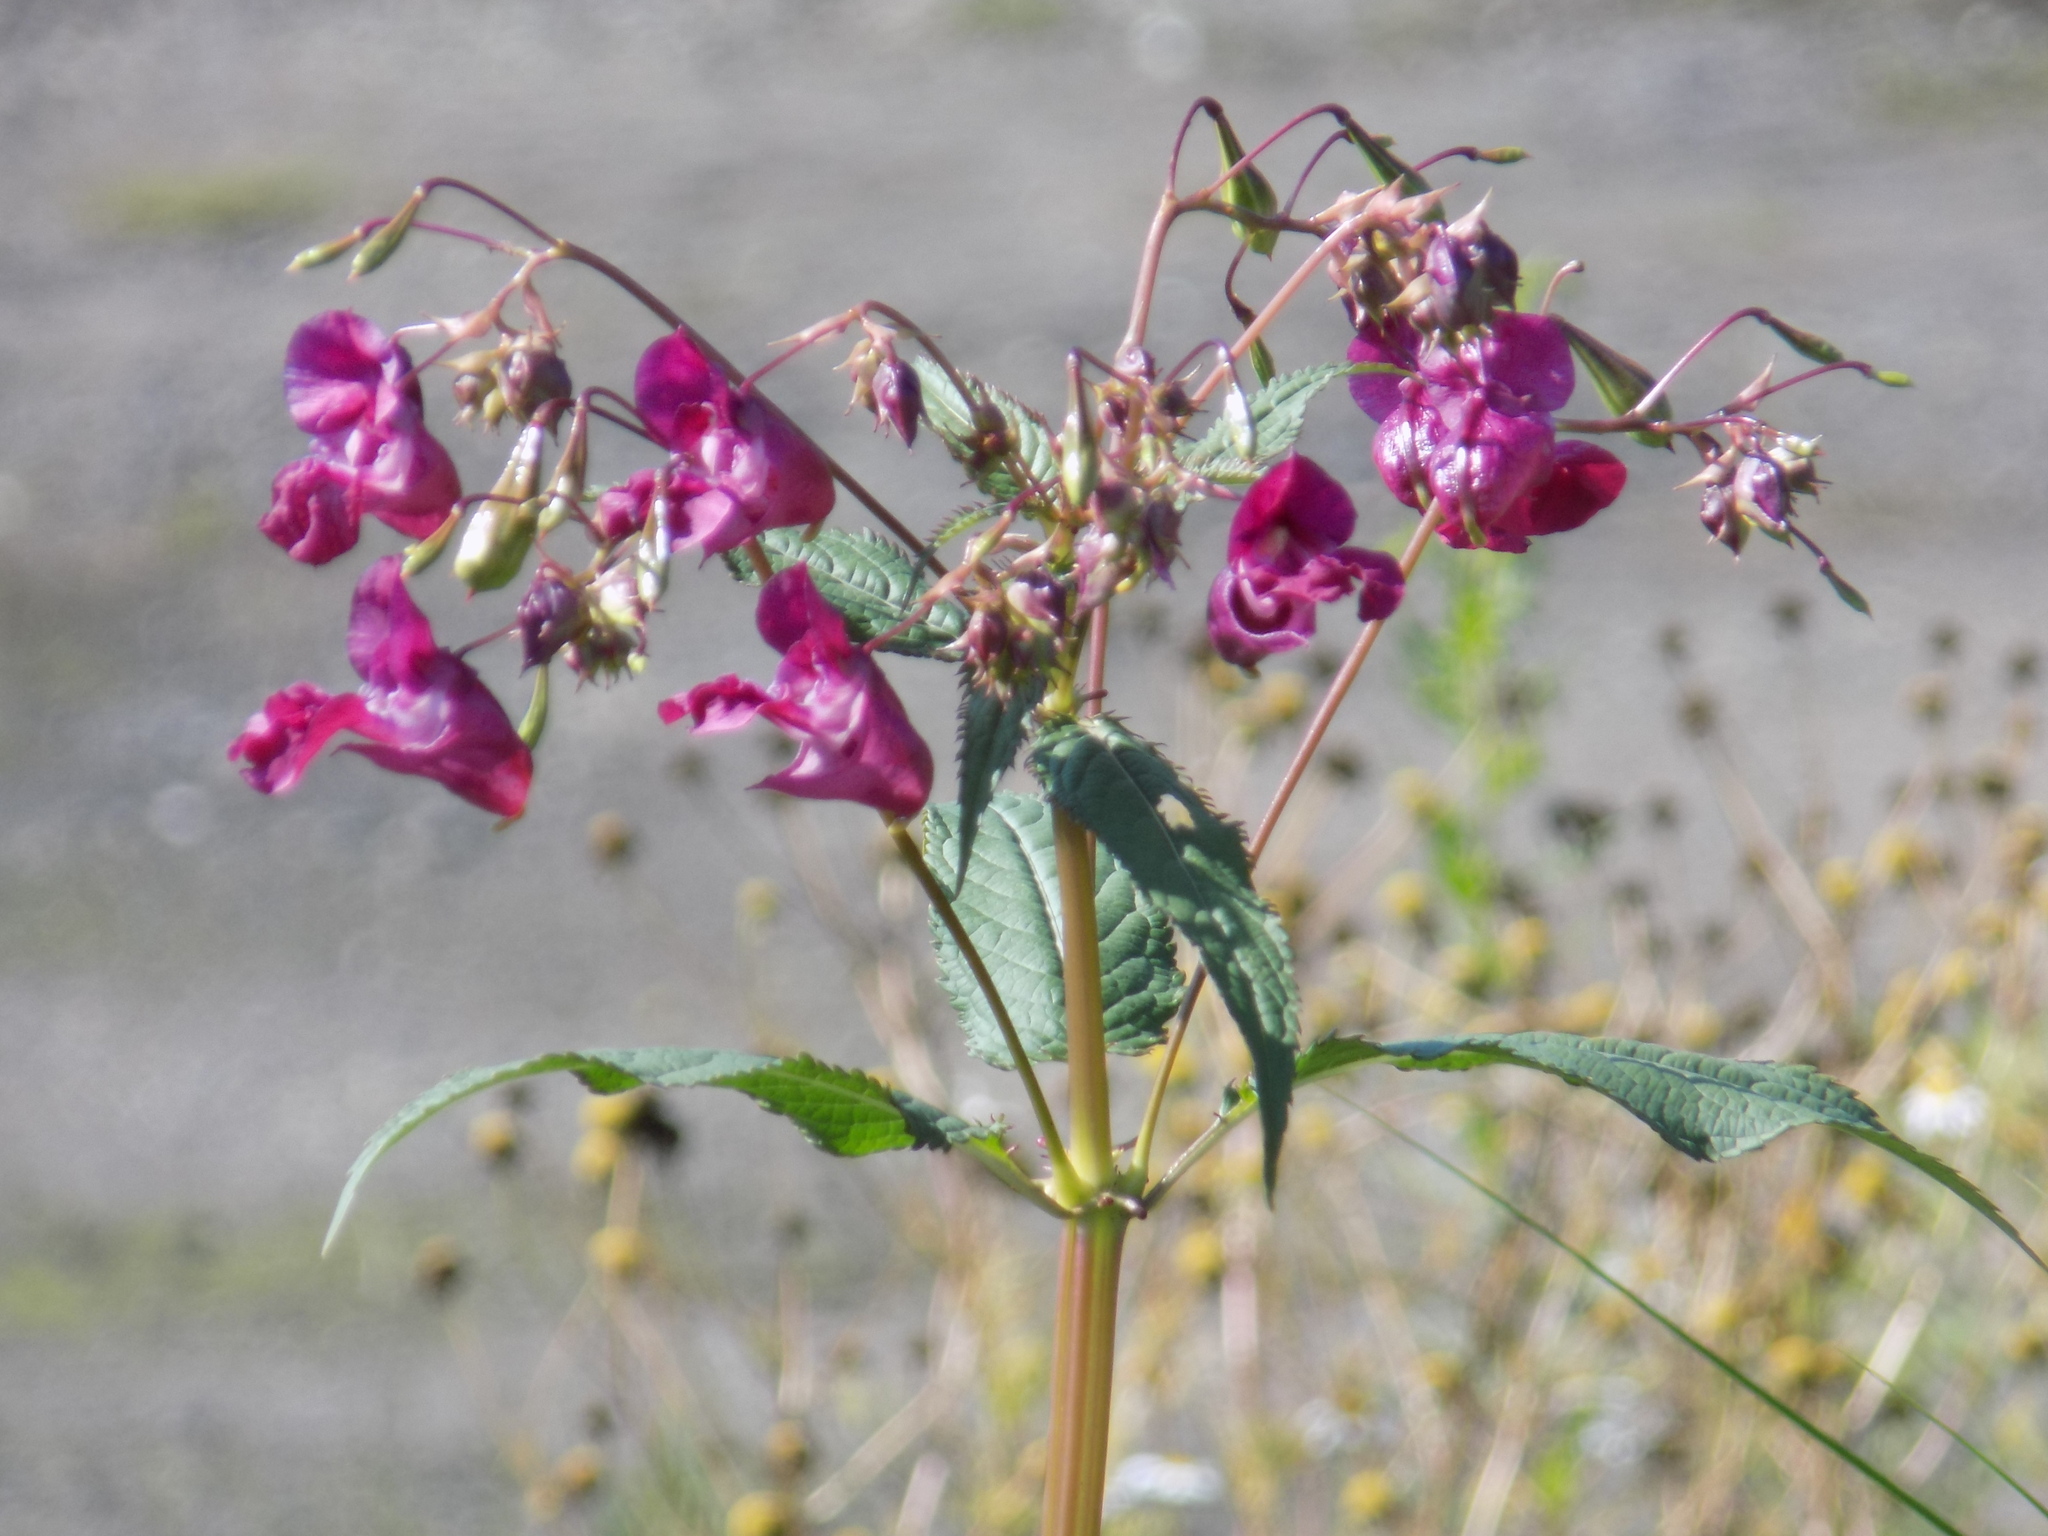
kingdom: Plantae
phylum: Tracheophyta
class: Magnoliopsida
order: Ericales
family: Balsaminaceae
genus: Impatiens
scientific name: Impatiens glandulifera
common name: Himalayan balsam
